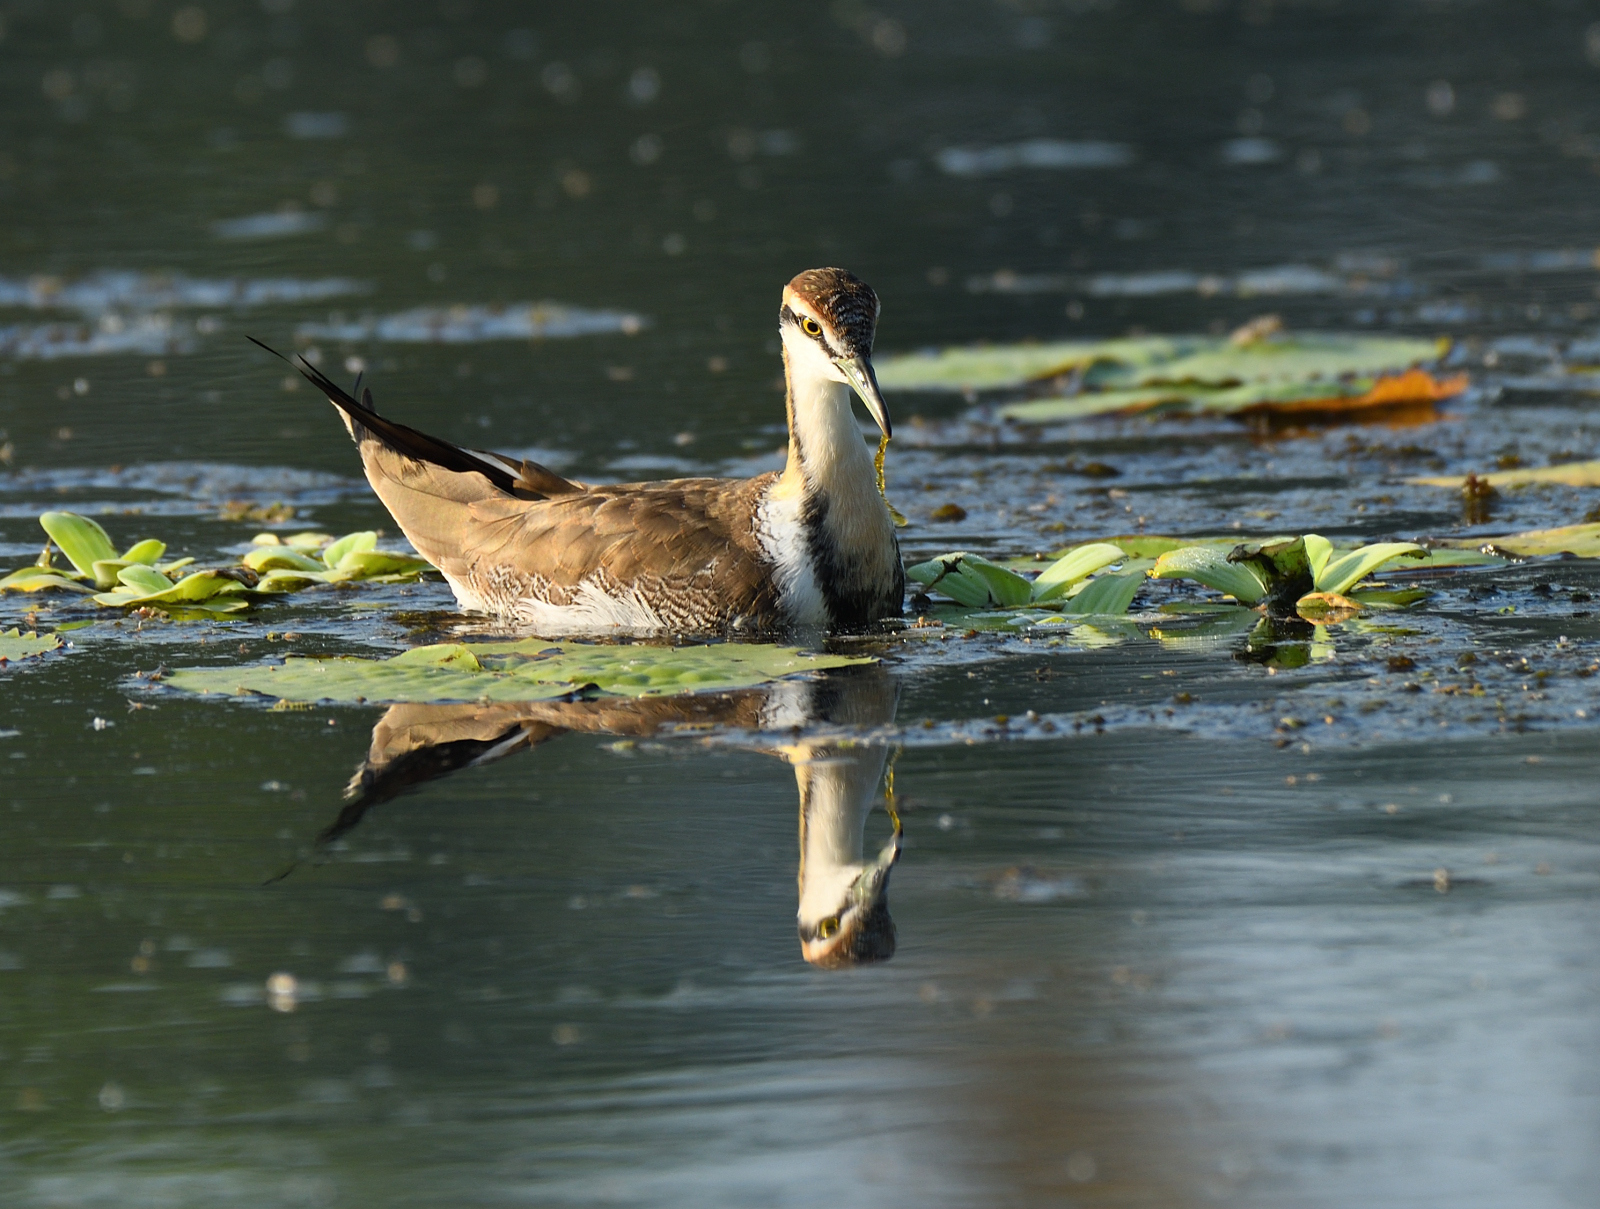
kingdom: Animalia
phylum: Chordata
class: Aves
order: Charadriiformes
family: Jacanidae
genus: Hydrophasianus
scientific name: Hydrophasianus chirurgus
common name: Pheasant-tailed jacana
